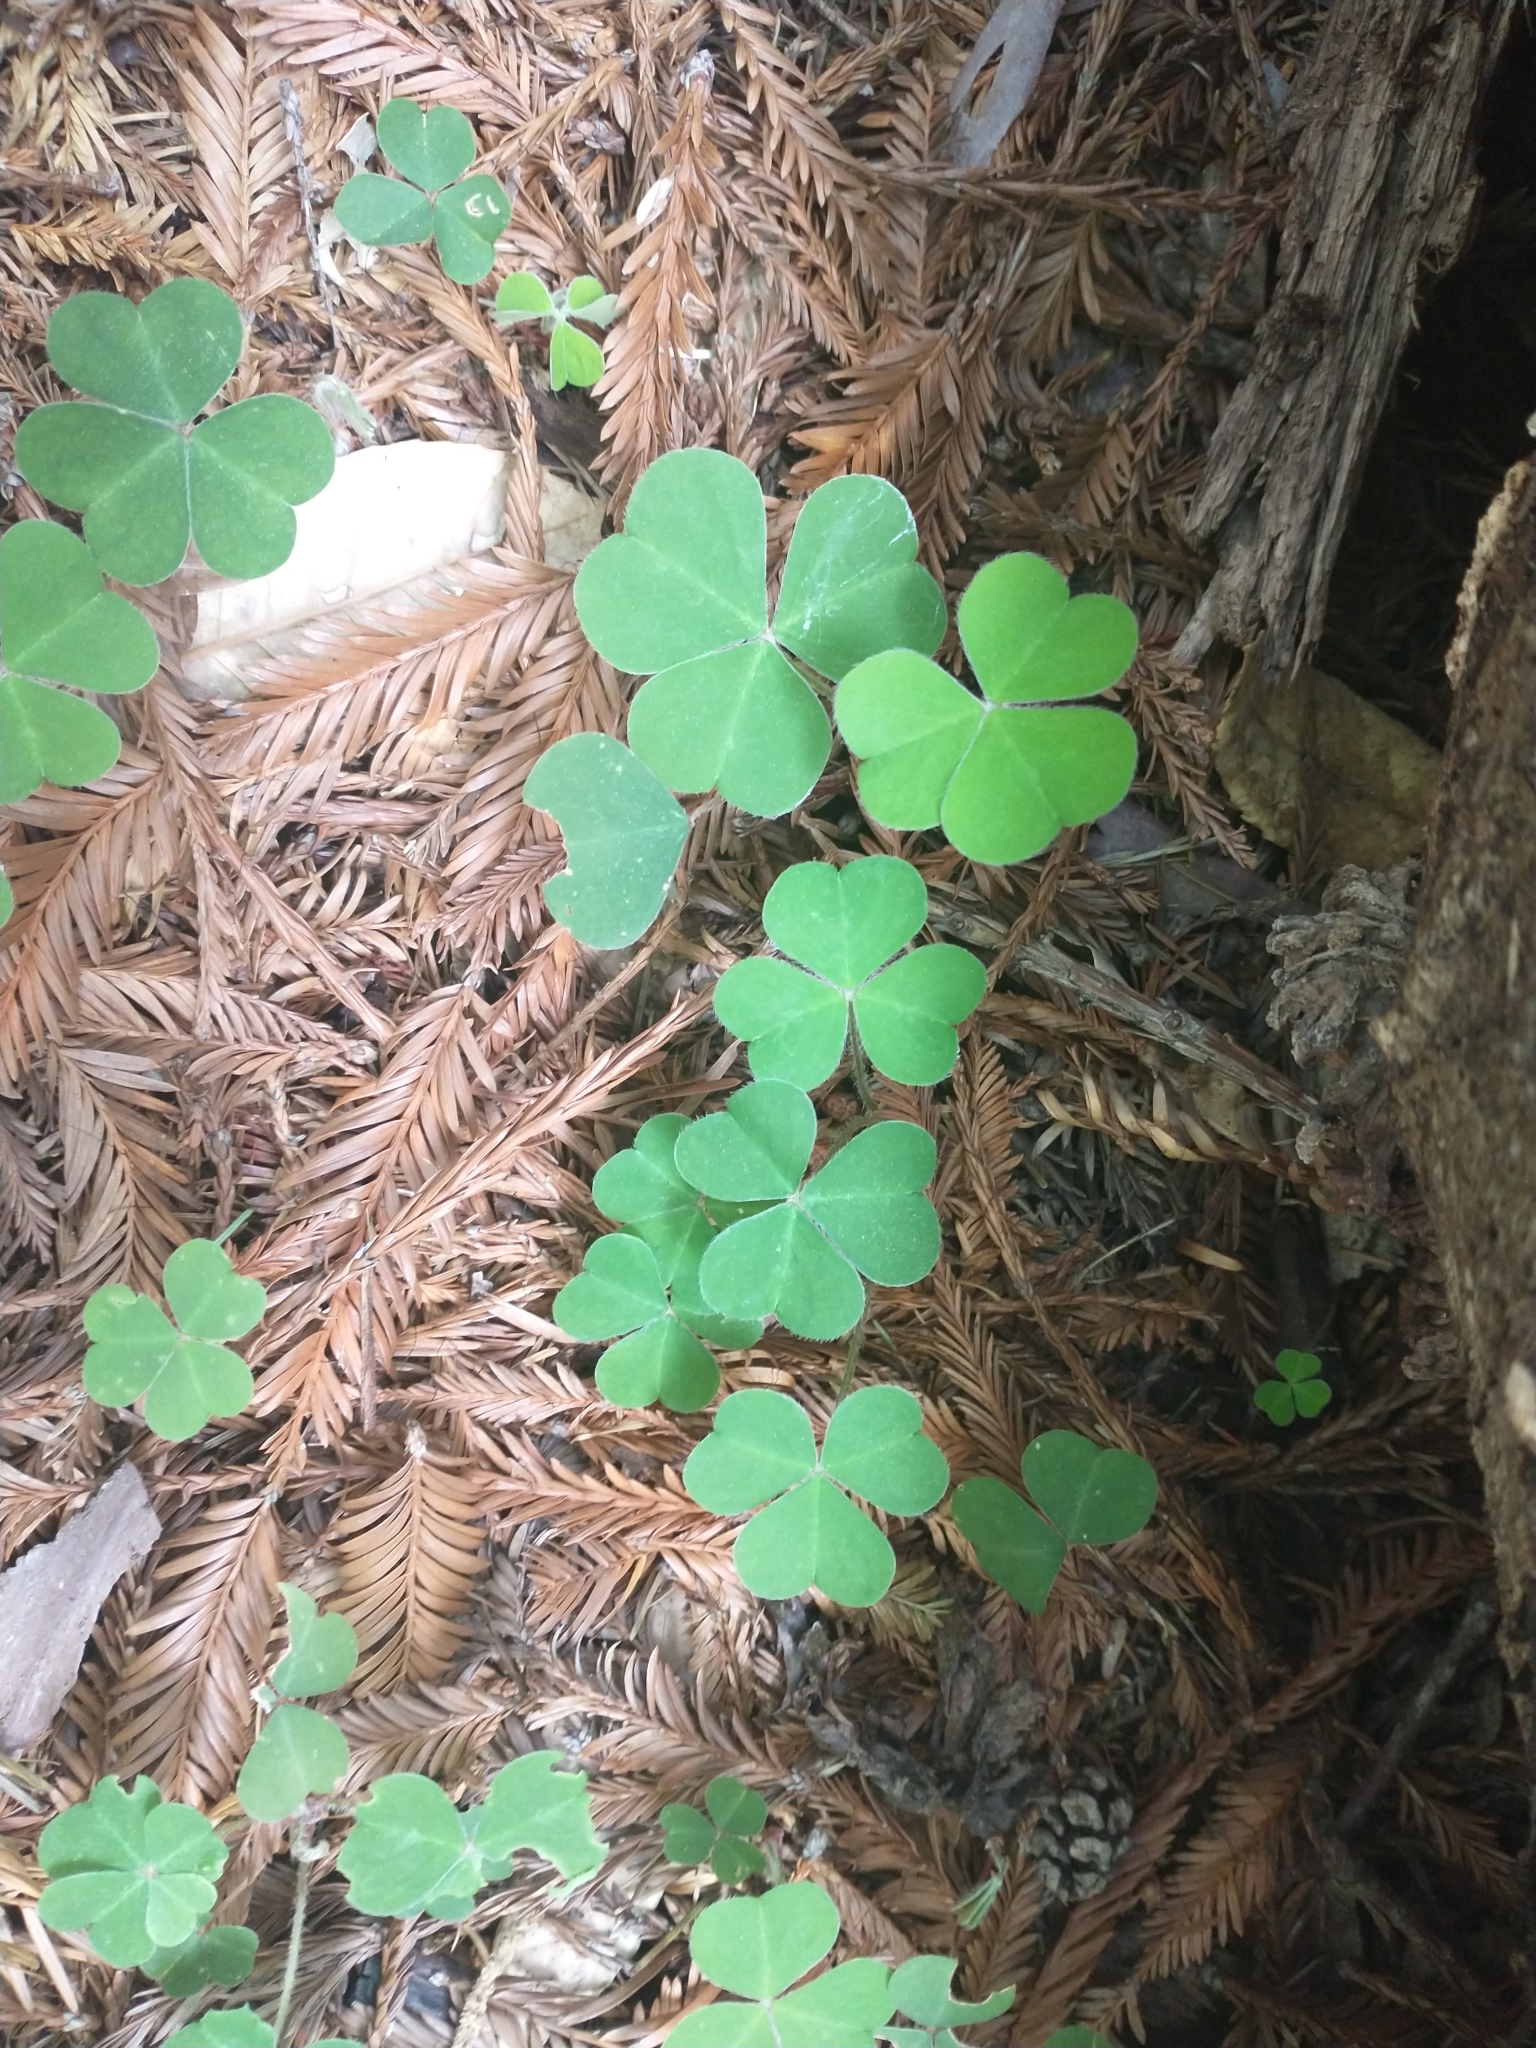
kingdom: Plantae
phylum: Tracheophyta
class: Magnoliopsida
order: Oxalidales
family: Oxalidaceae
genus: Oxalis
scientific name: Oxalis oregana
